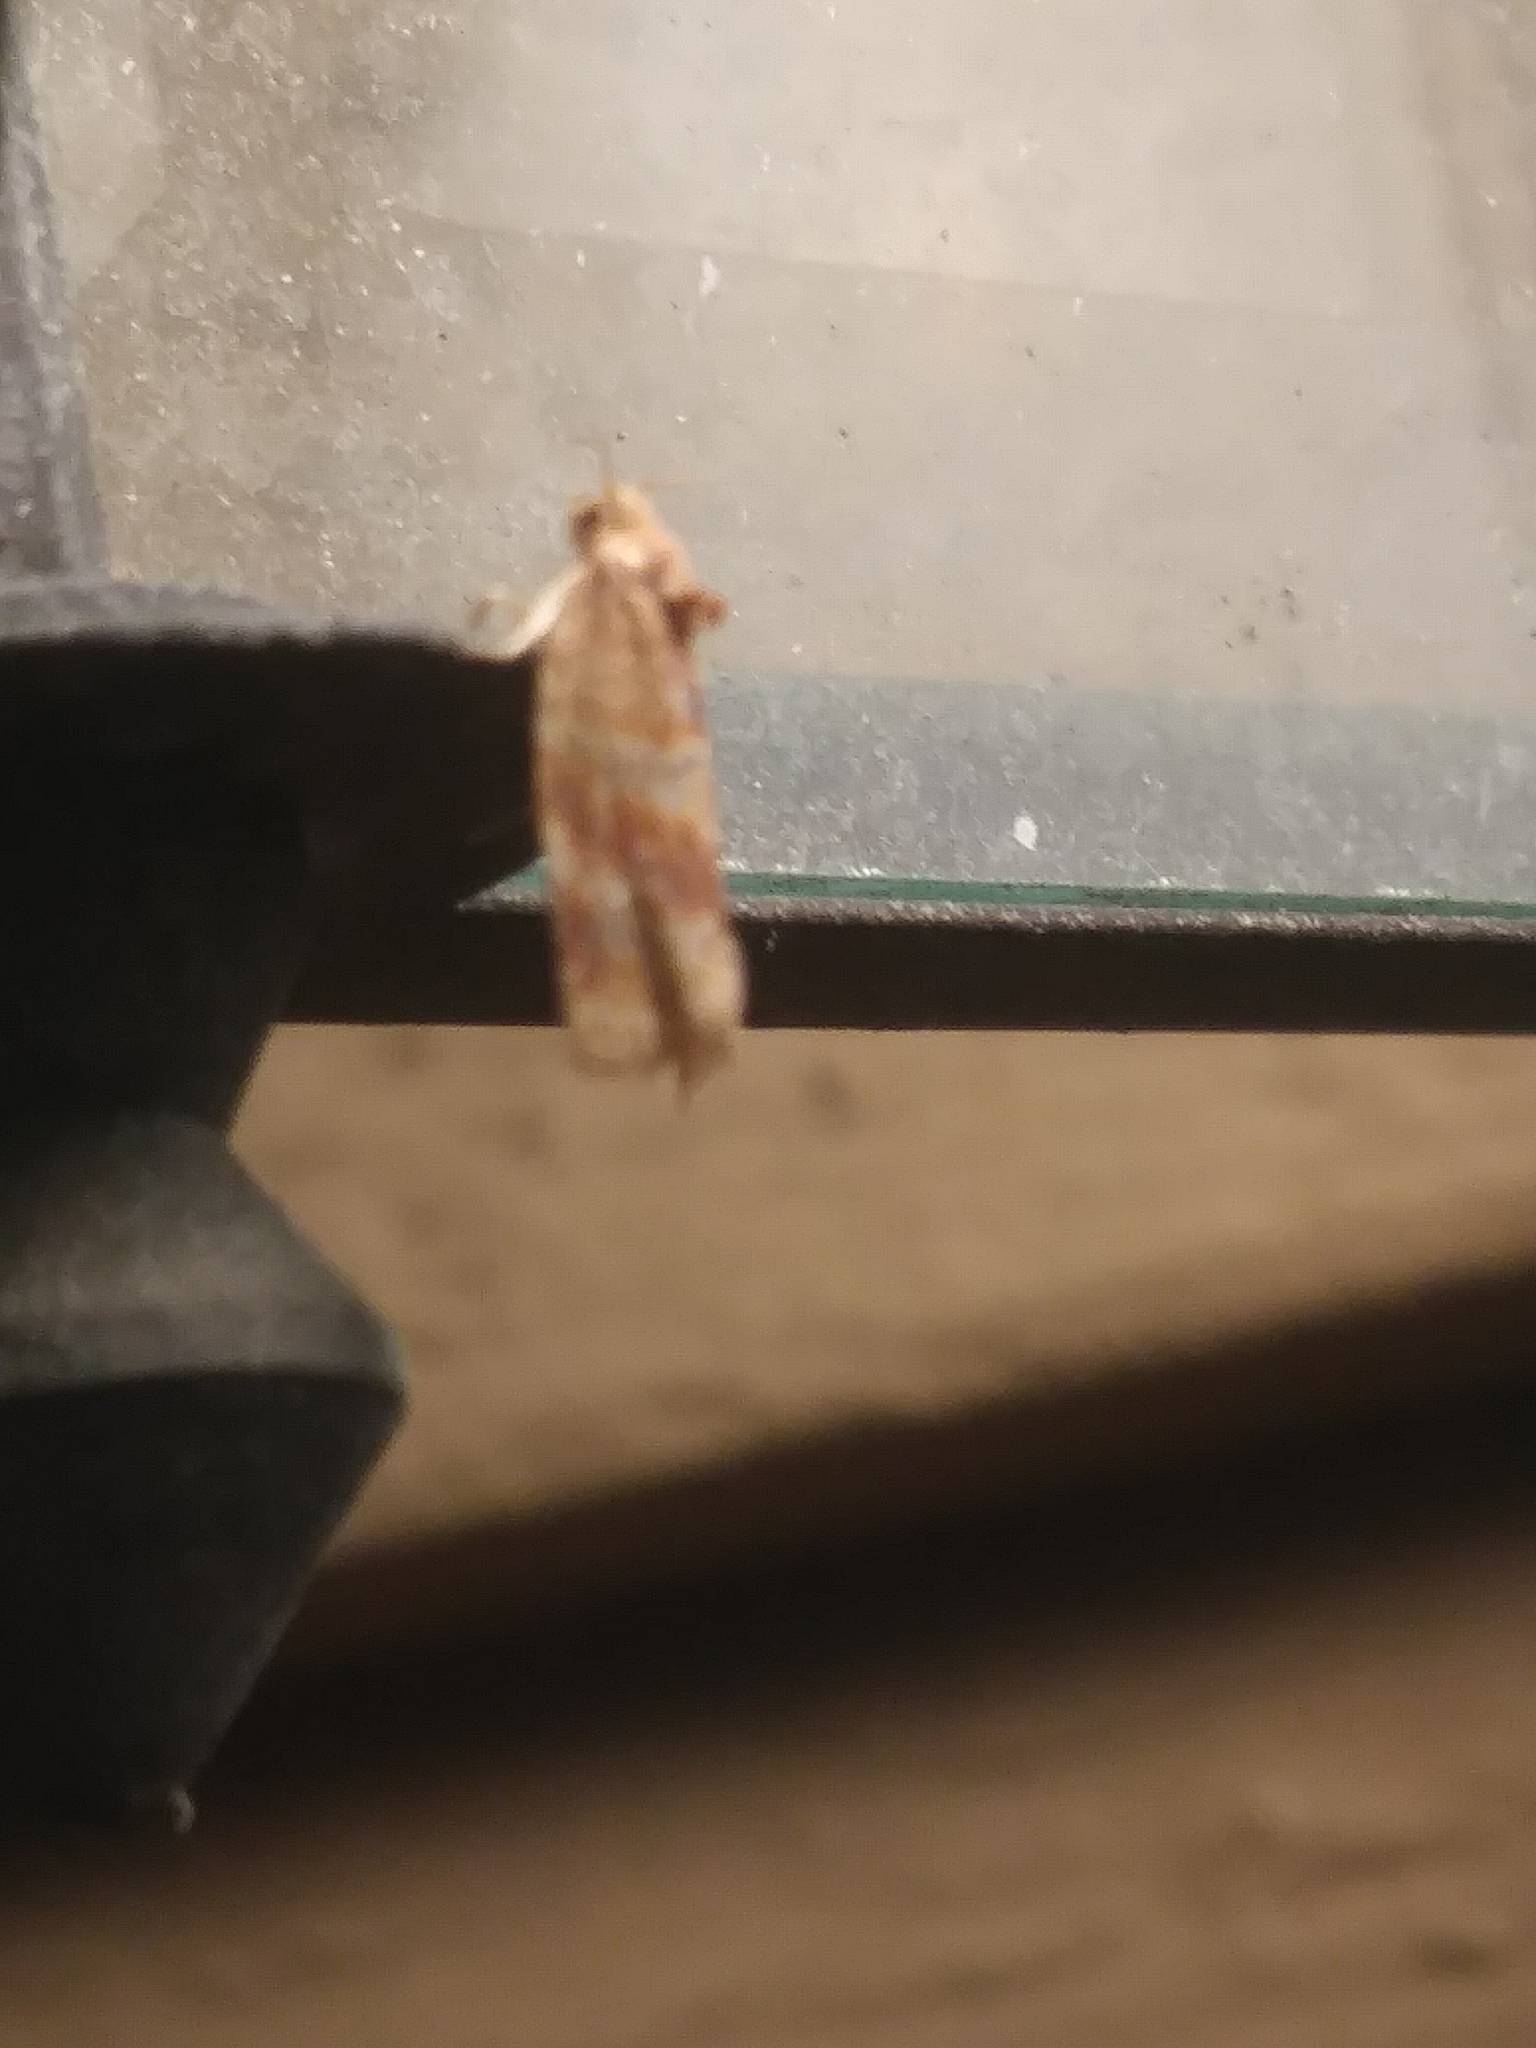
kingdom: Animalia
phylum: Arthropoda
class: Insecta
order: Lepidoptera
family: Tortricidae
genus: Argyrotaenia
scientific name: Argyrotaenia pinatubana
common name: Pine tube moth
